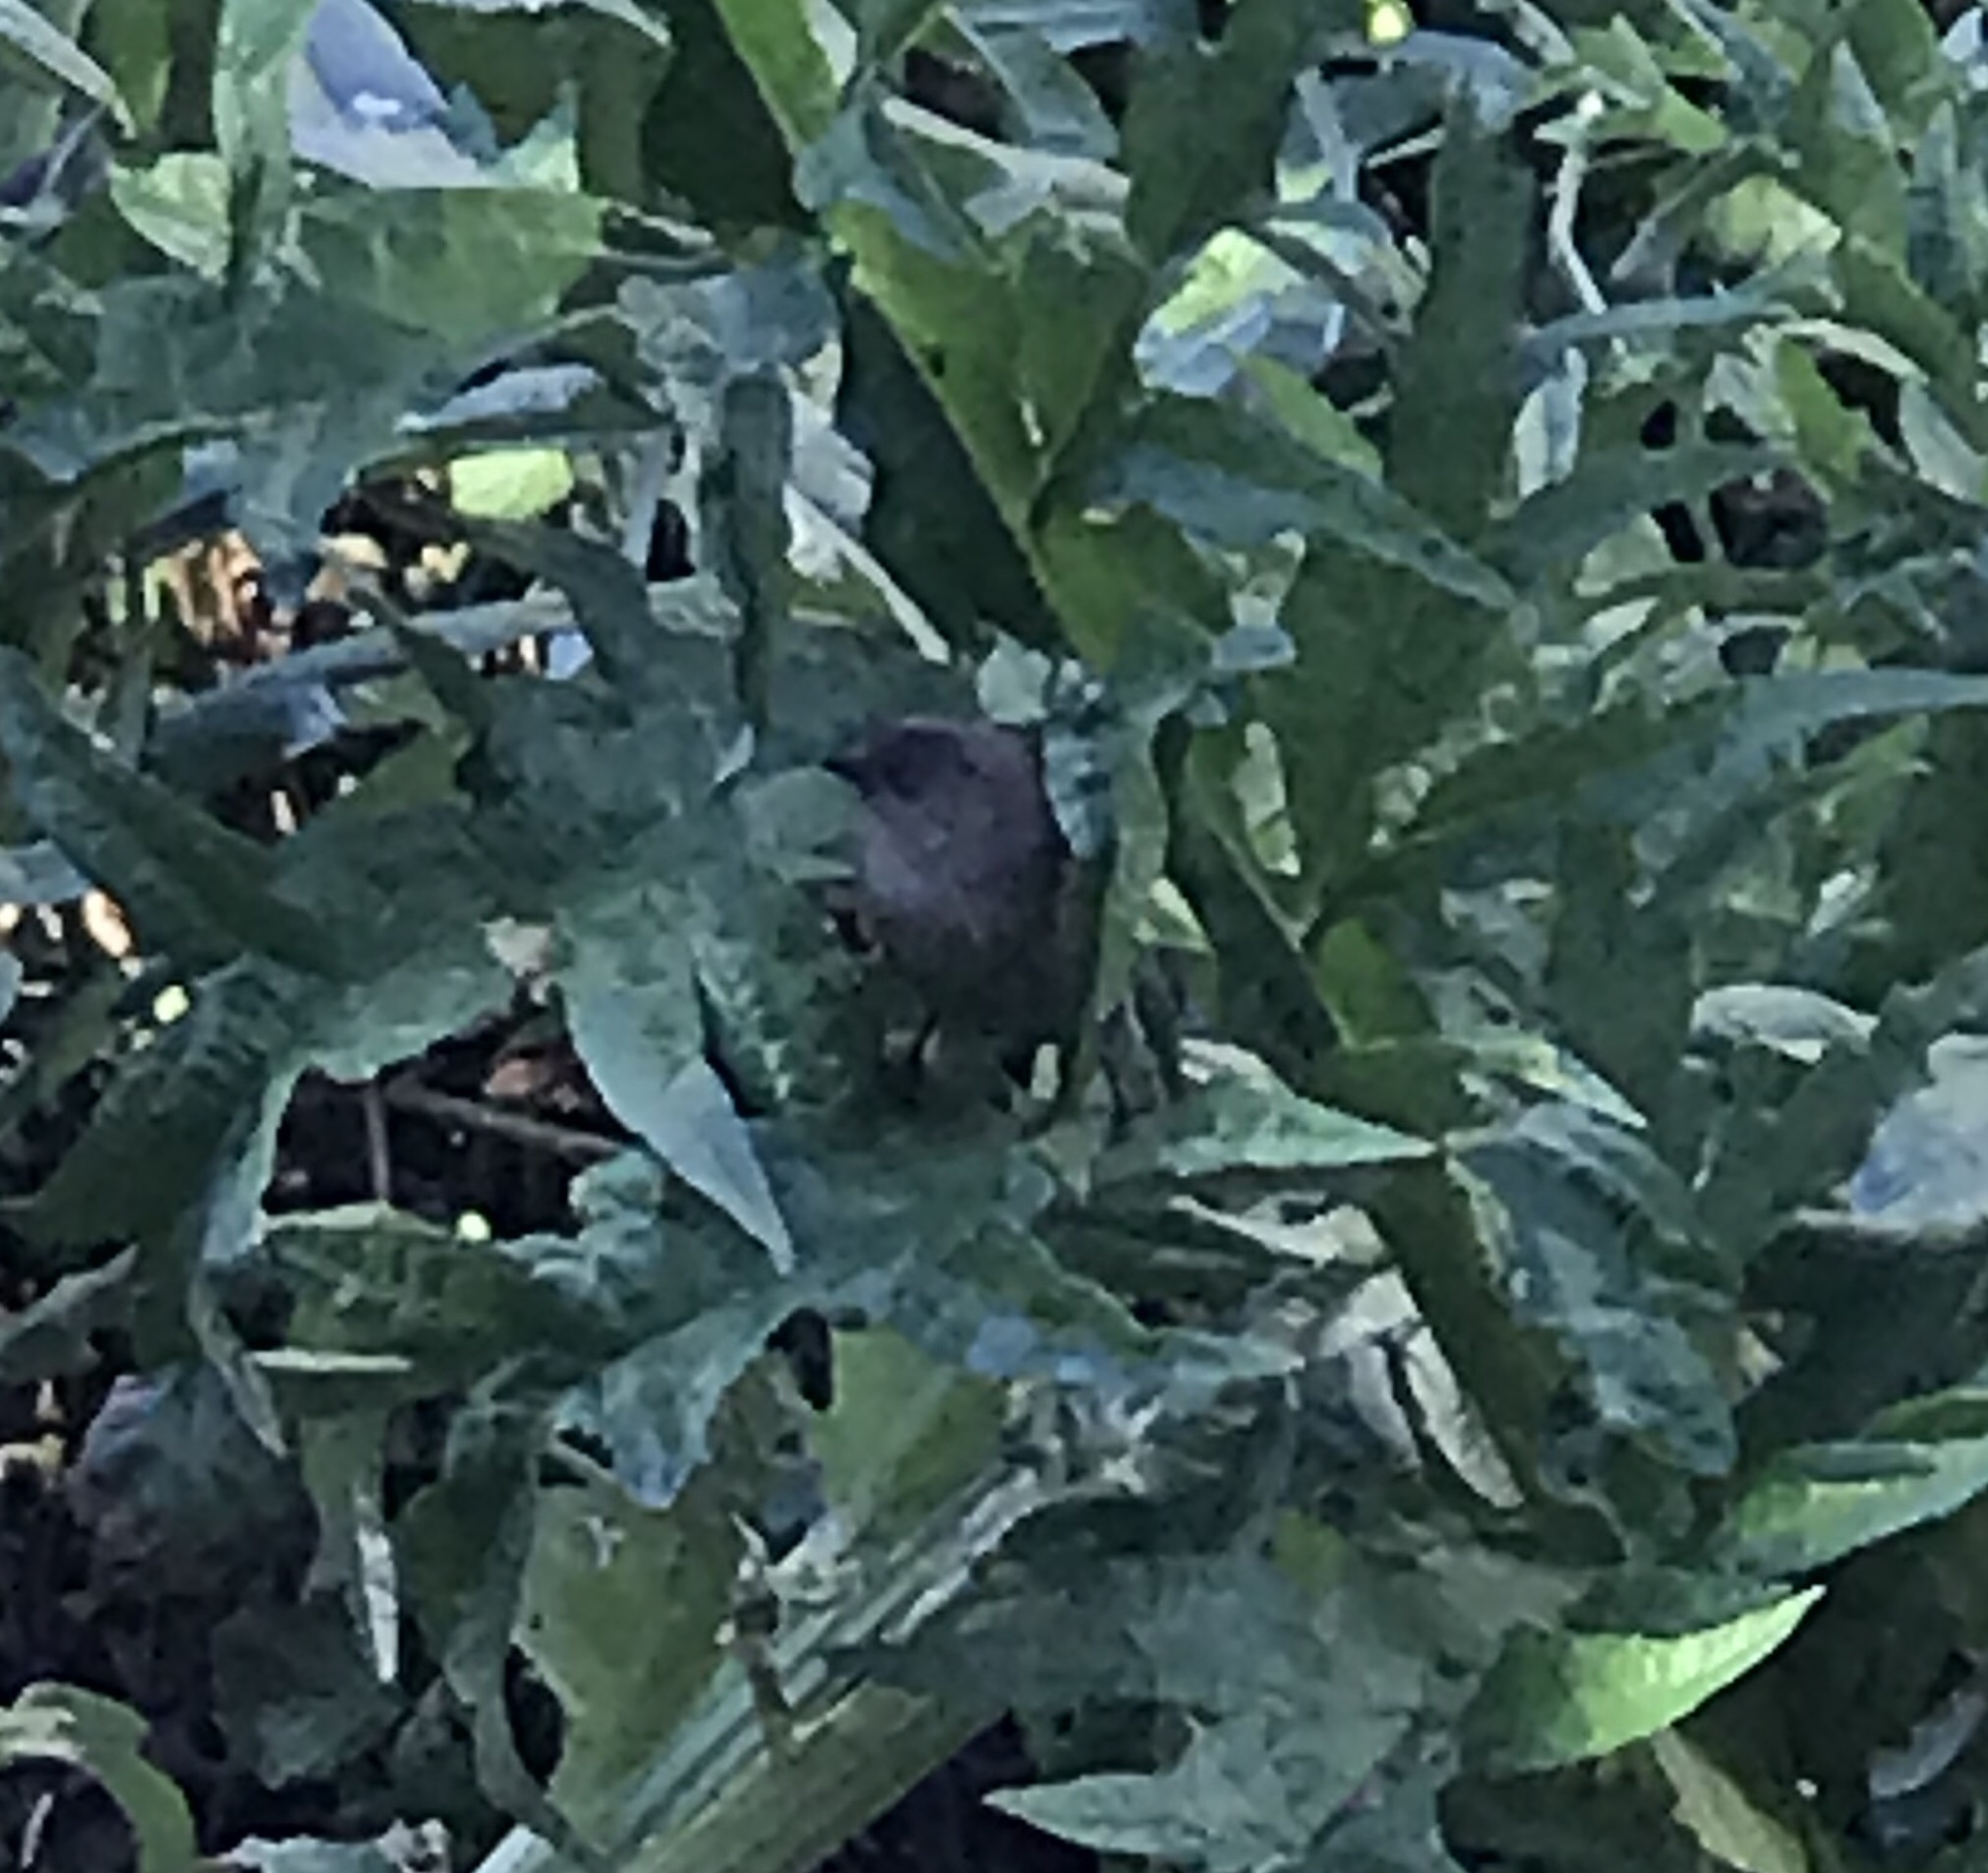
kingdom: Animalia
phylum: Chordata
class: Aves
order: Passeriformes
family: Aegithalidae
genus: Psaltriparus
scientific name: Psaltriparus minimus
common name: American bushtit
